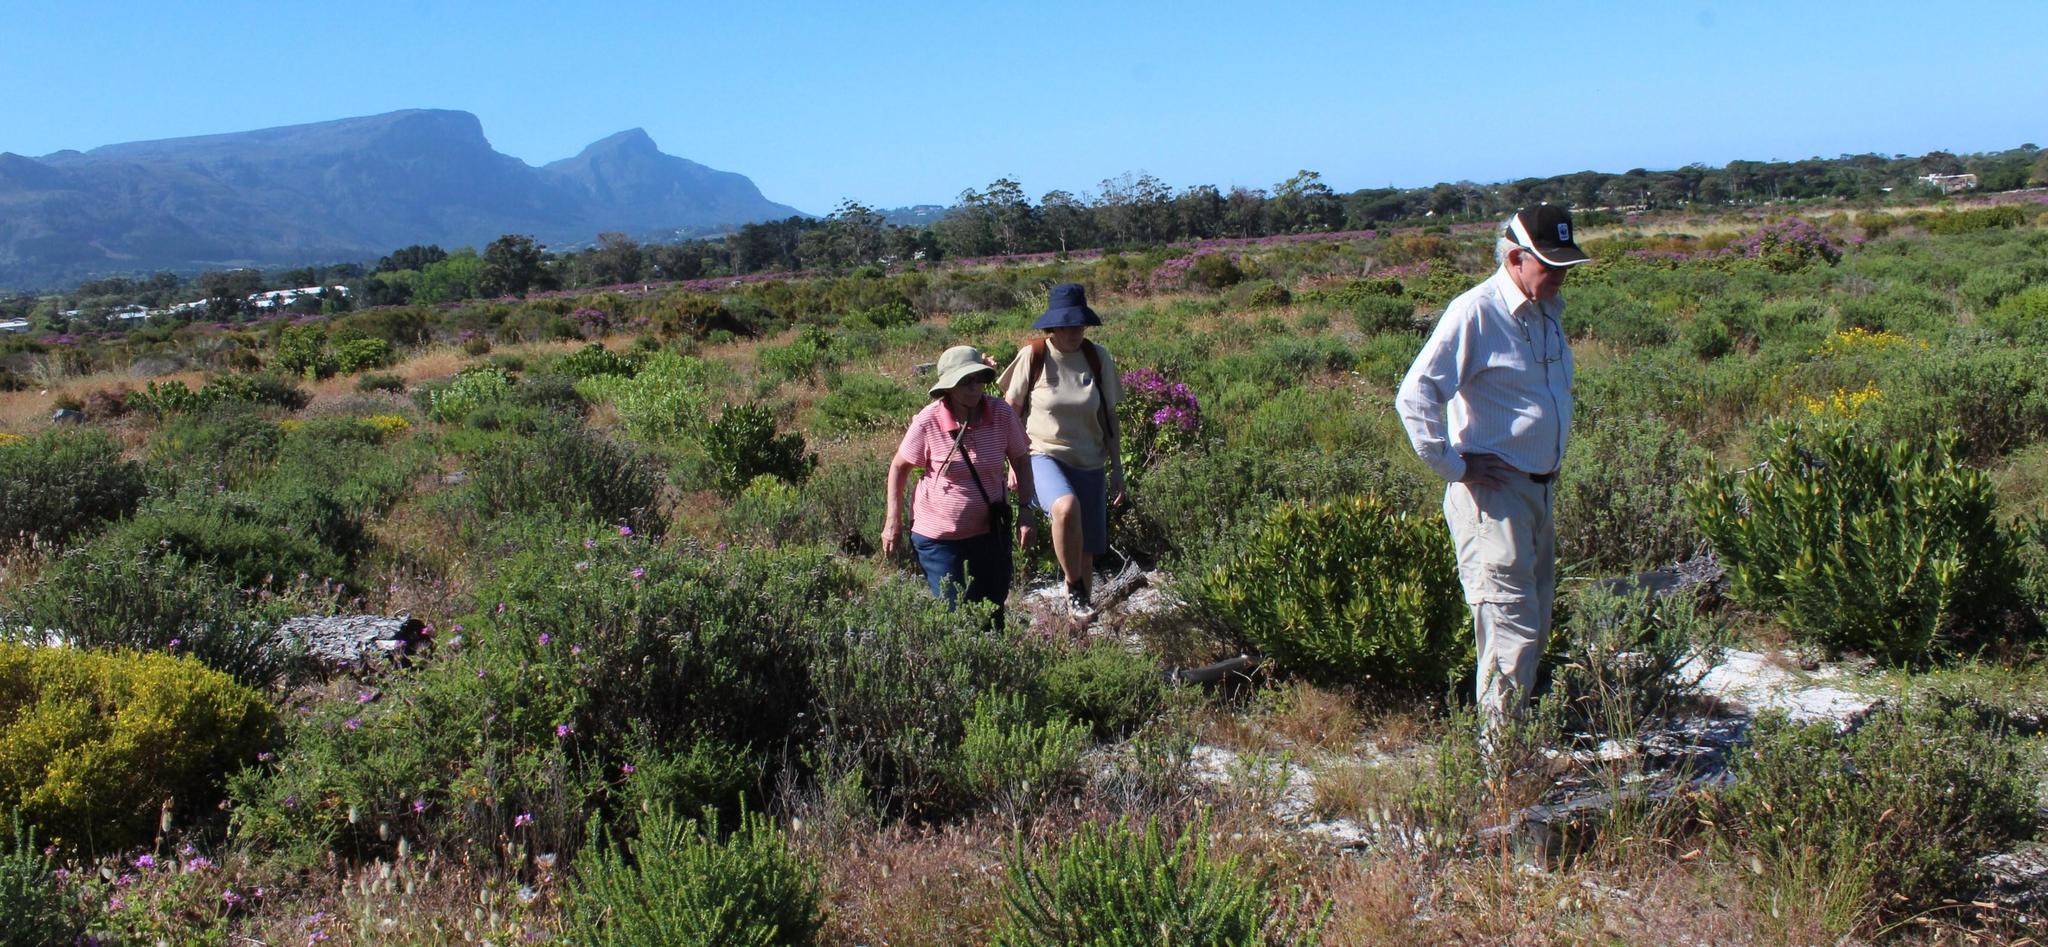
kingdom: Plantae
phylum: Tracheophyta
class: Magnoliopsida
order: Proteales
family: Proteaceae
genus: Leucadendron
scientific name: Leucadendron laureolum
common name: Golden sunshinebush
